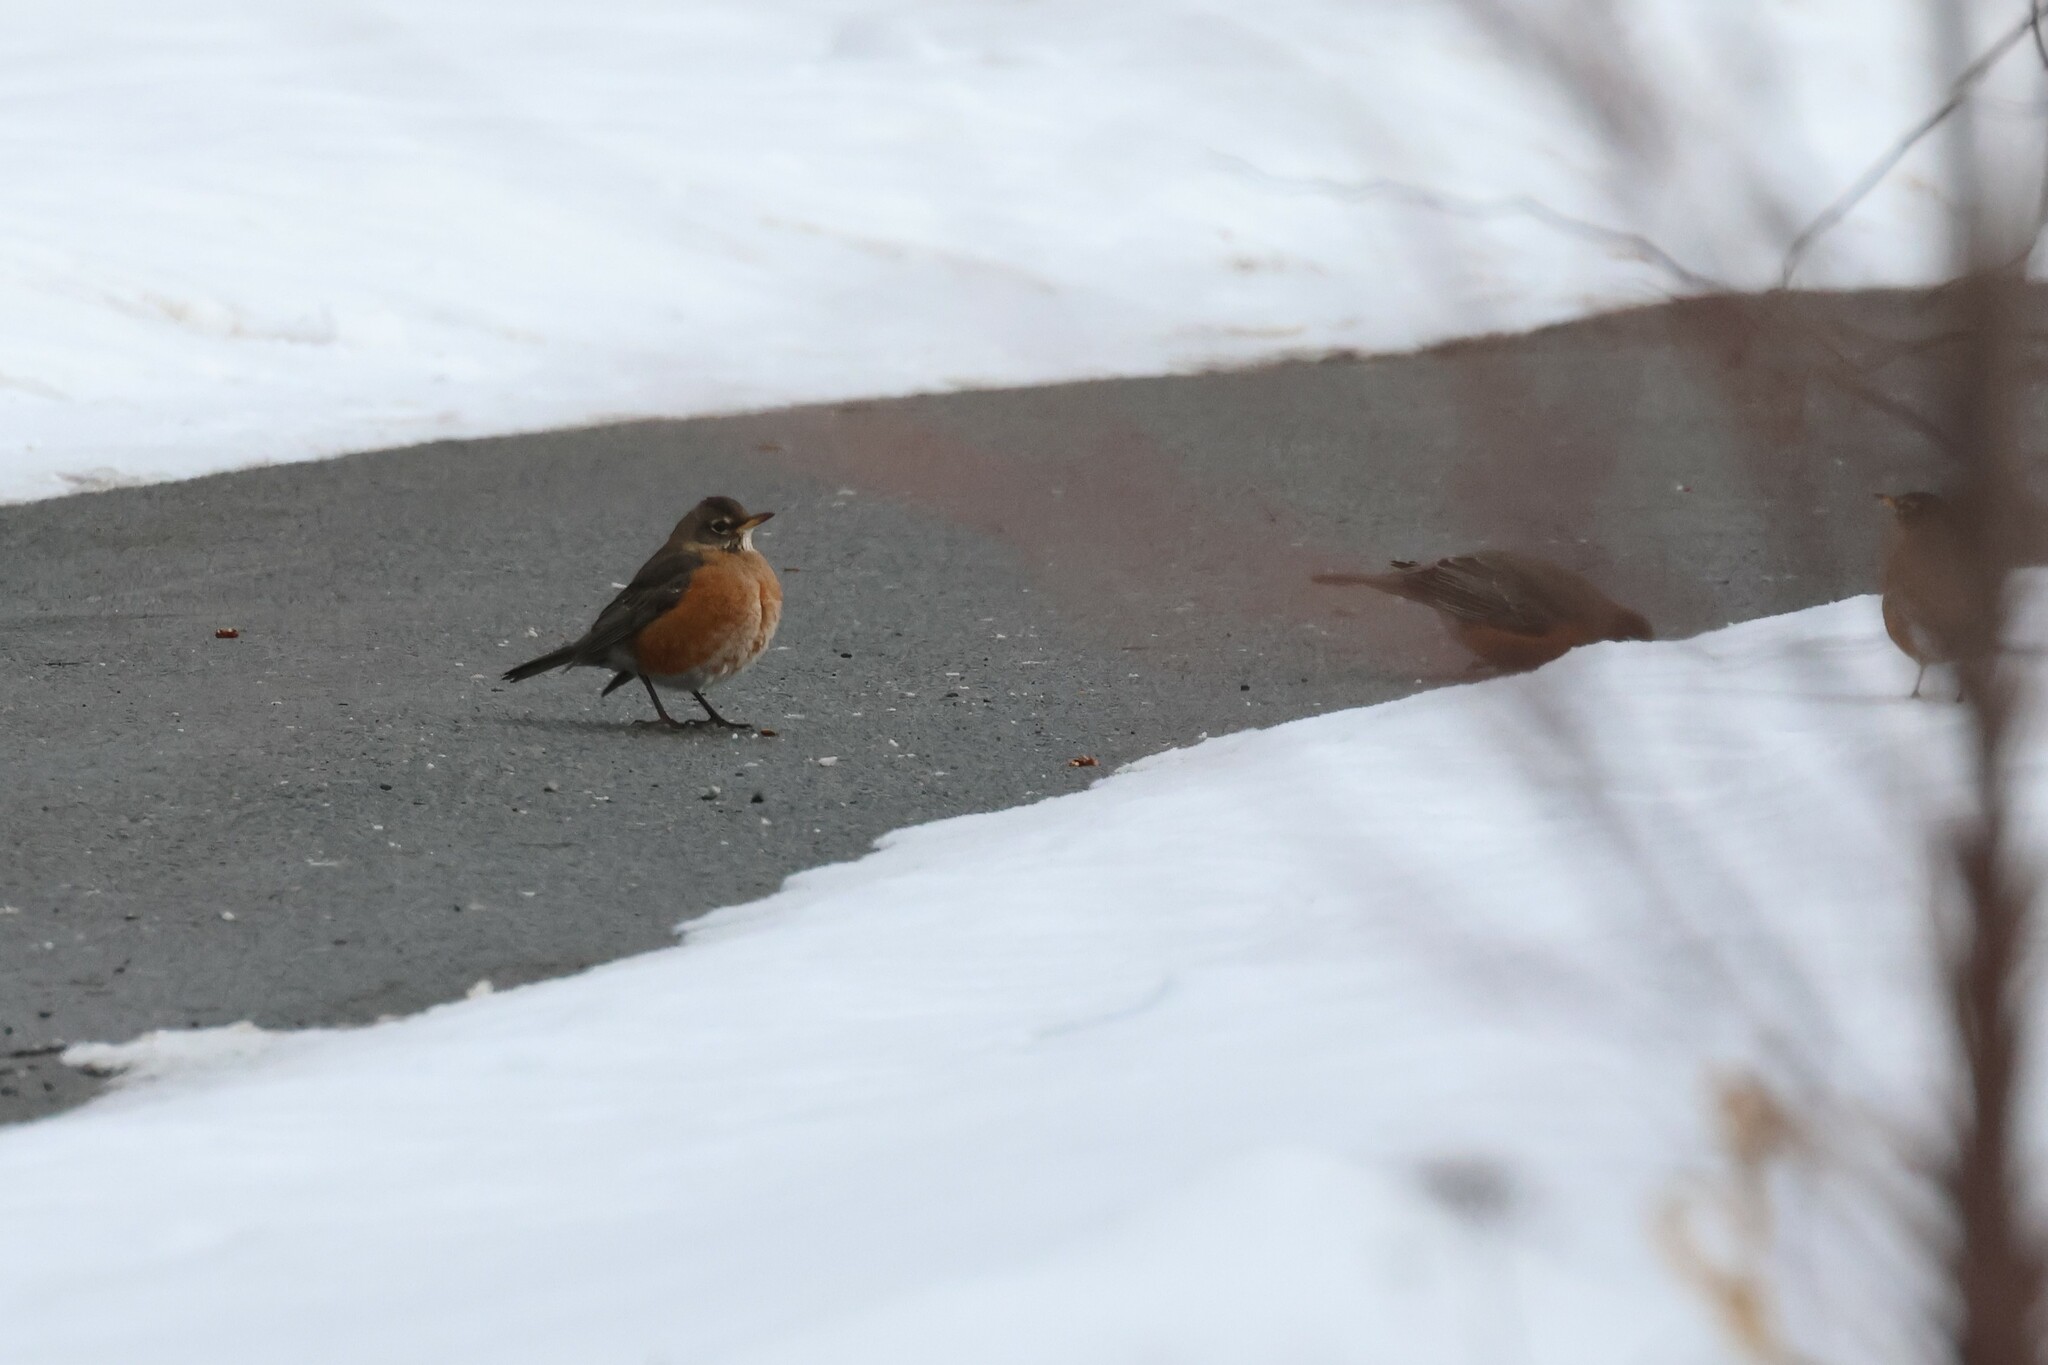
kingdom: Animalia
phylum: Chordata
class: Aves
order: Passeriformes
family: Turdidae
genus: Turdus
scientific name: Turdus migratorius
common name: American robin
